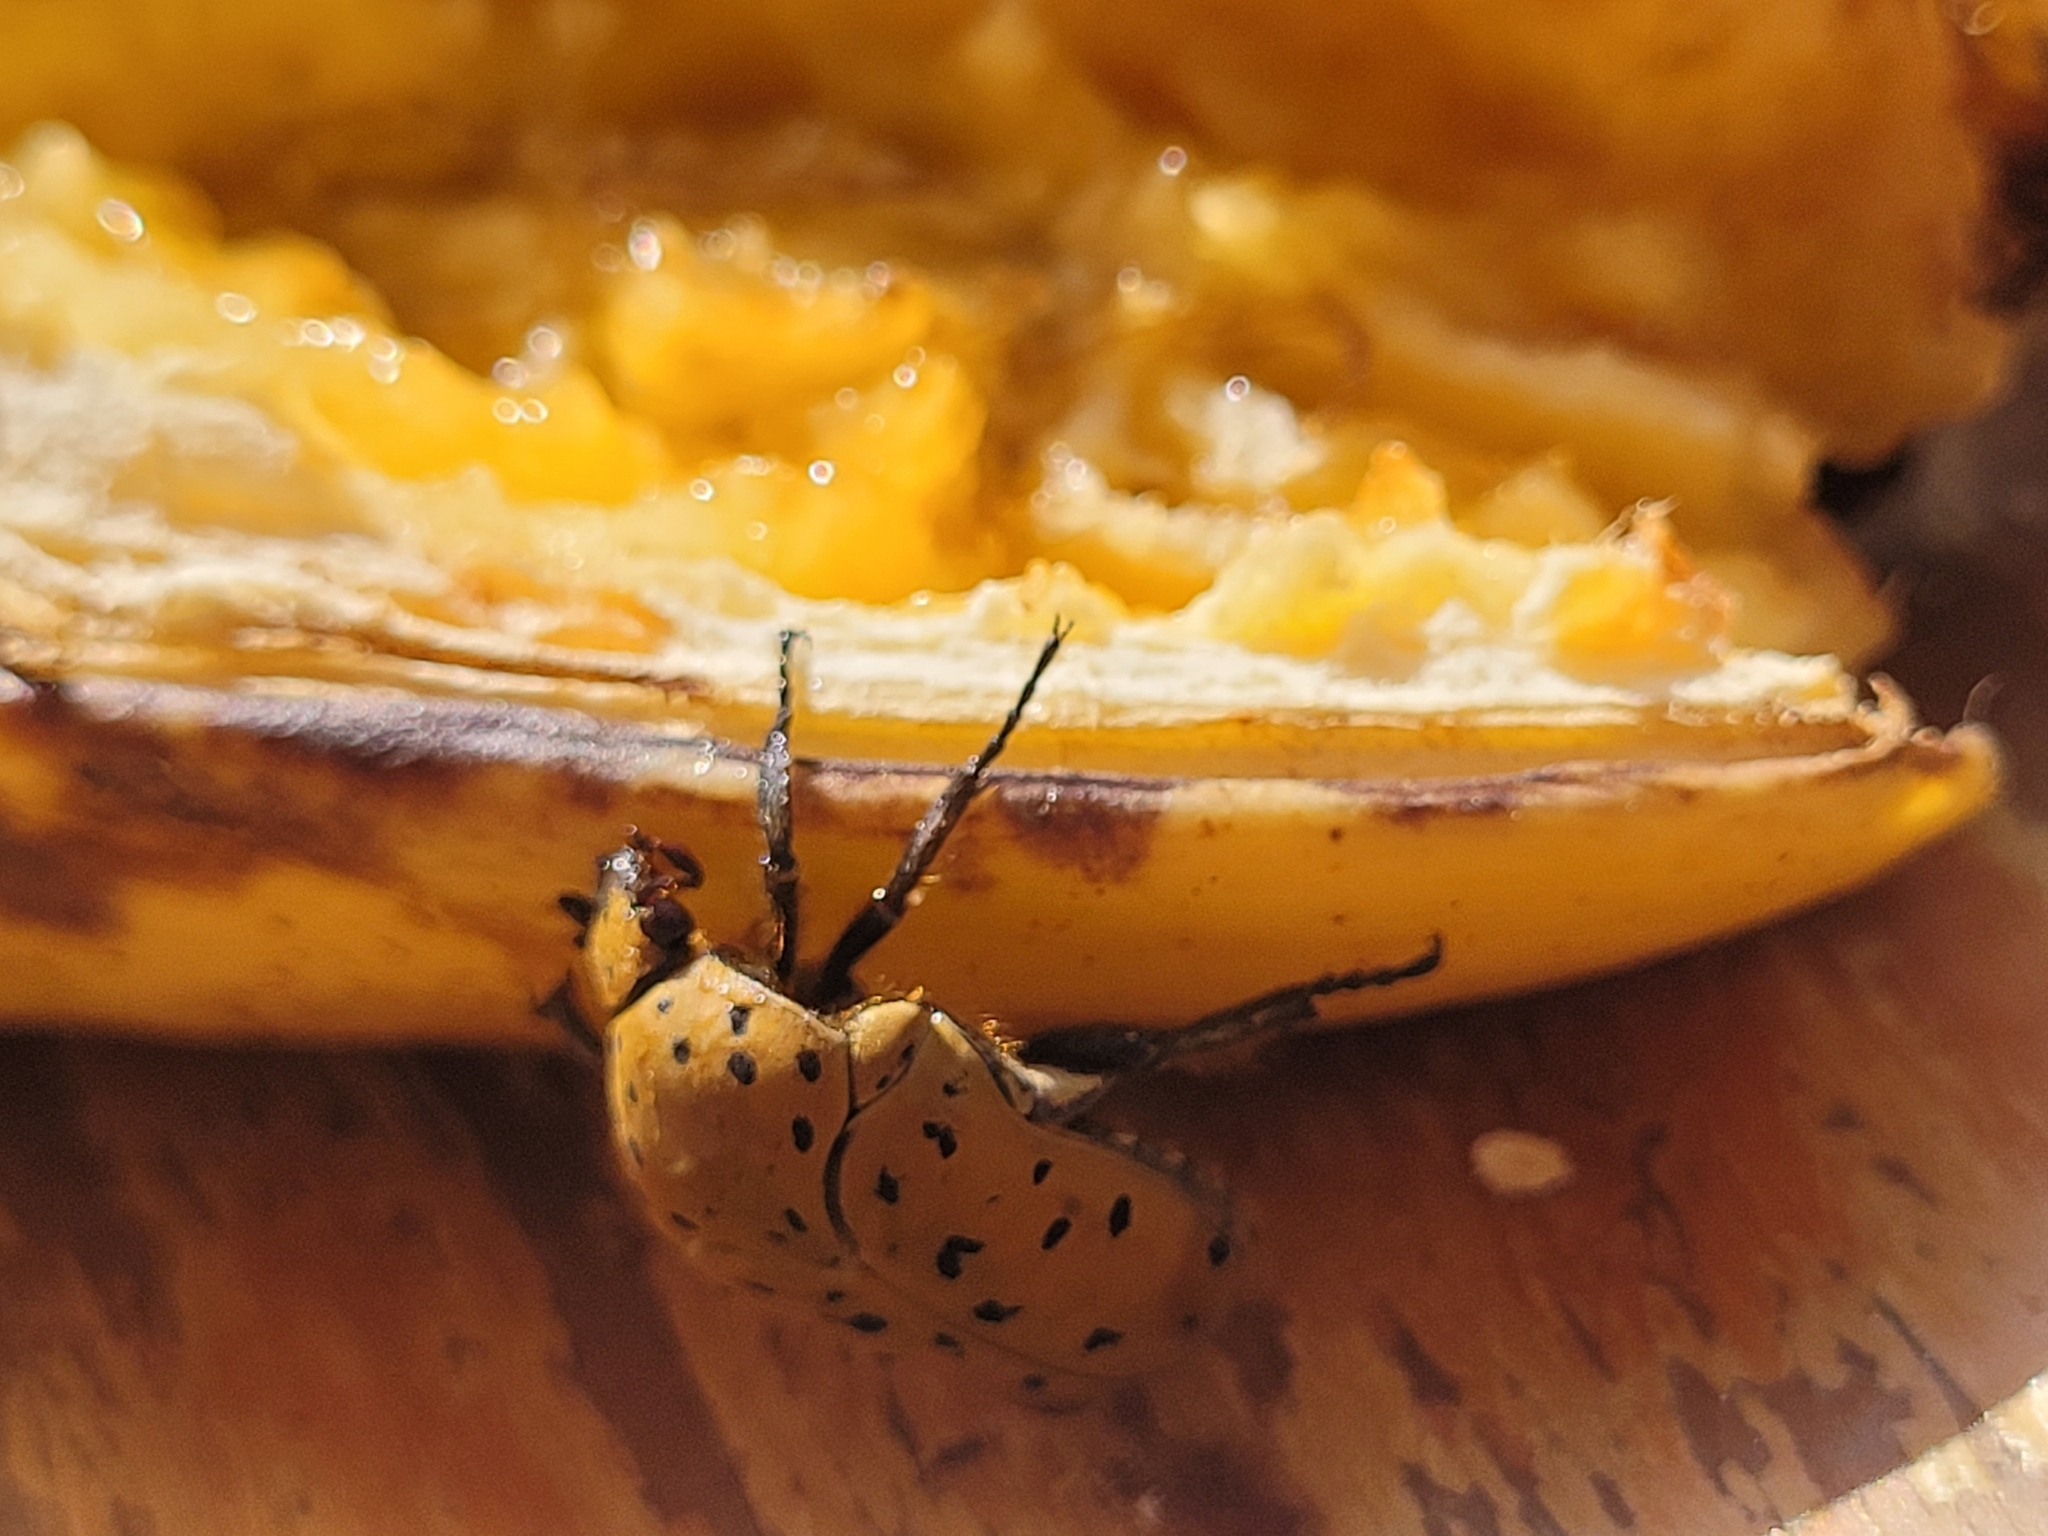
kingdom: Animalia
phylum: Arthropoda
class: Insecta
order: Coleoptera
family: Scarabaeidae
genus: Gymnetis
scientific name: Gymnetis pantherina
